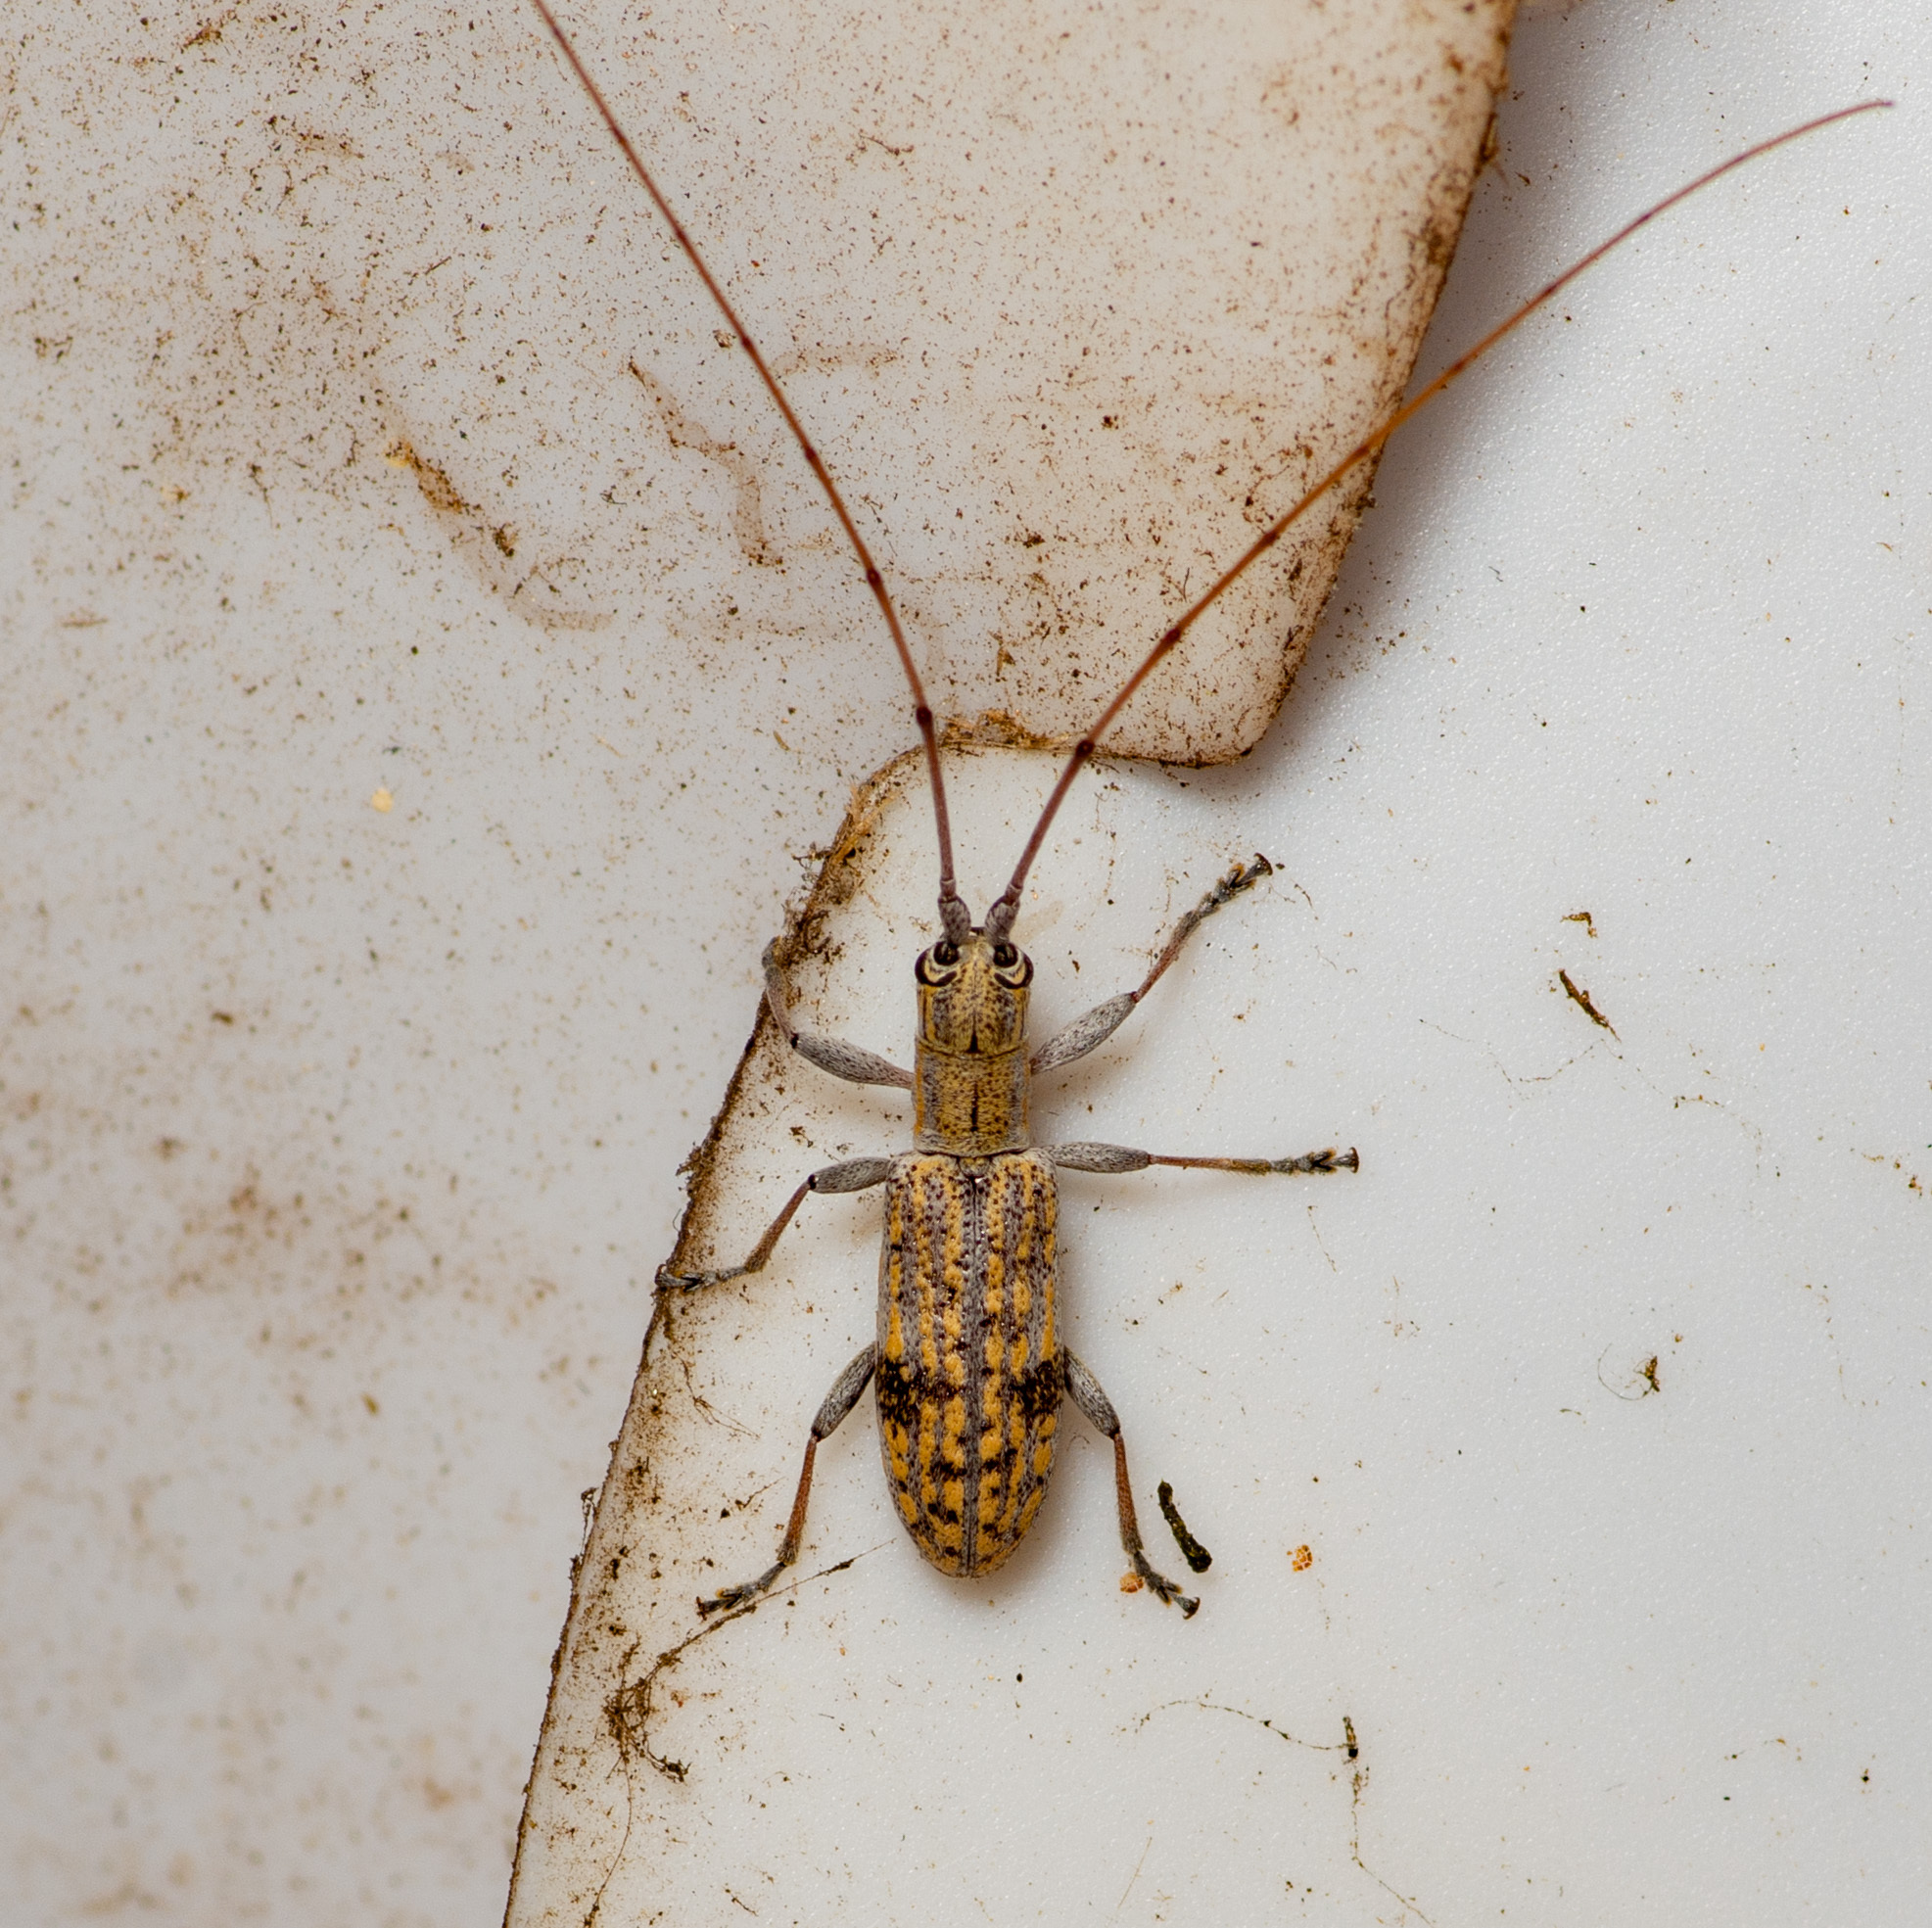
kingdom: Animalia
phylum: Arthropoda
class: Insecta
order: Coleoptera
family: Cerambycidae
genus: Dorcaschema
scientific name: Dorcaschema alternatum
